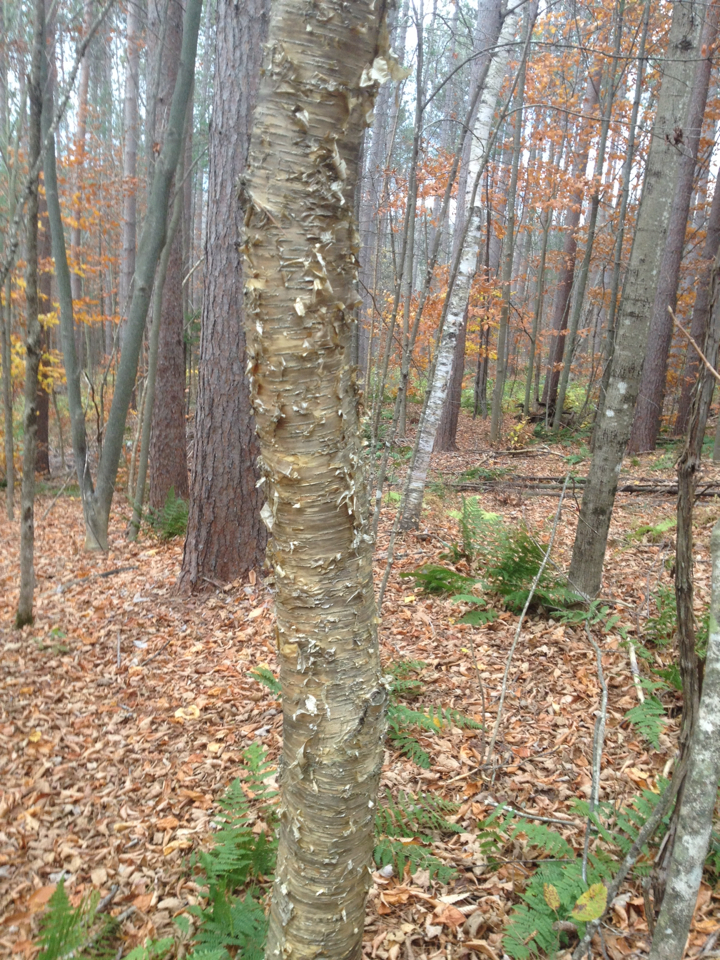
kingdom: Plantae
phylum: Tracheophyta
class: Magnoliopsida
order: Fagales
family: Betulaceae
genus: Betula
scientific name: Betula alleghaniensis
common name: Yellow birch
